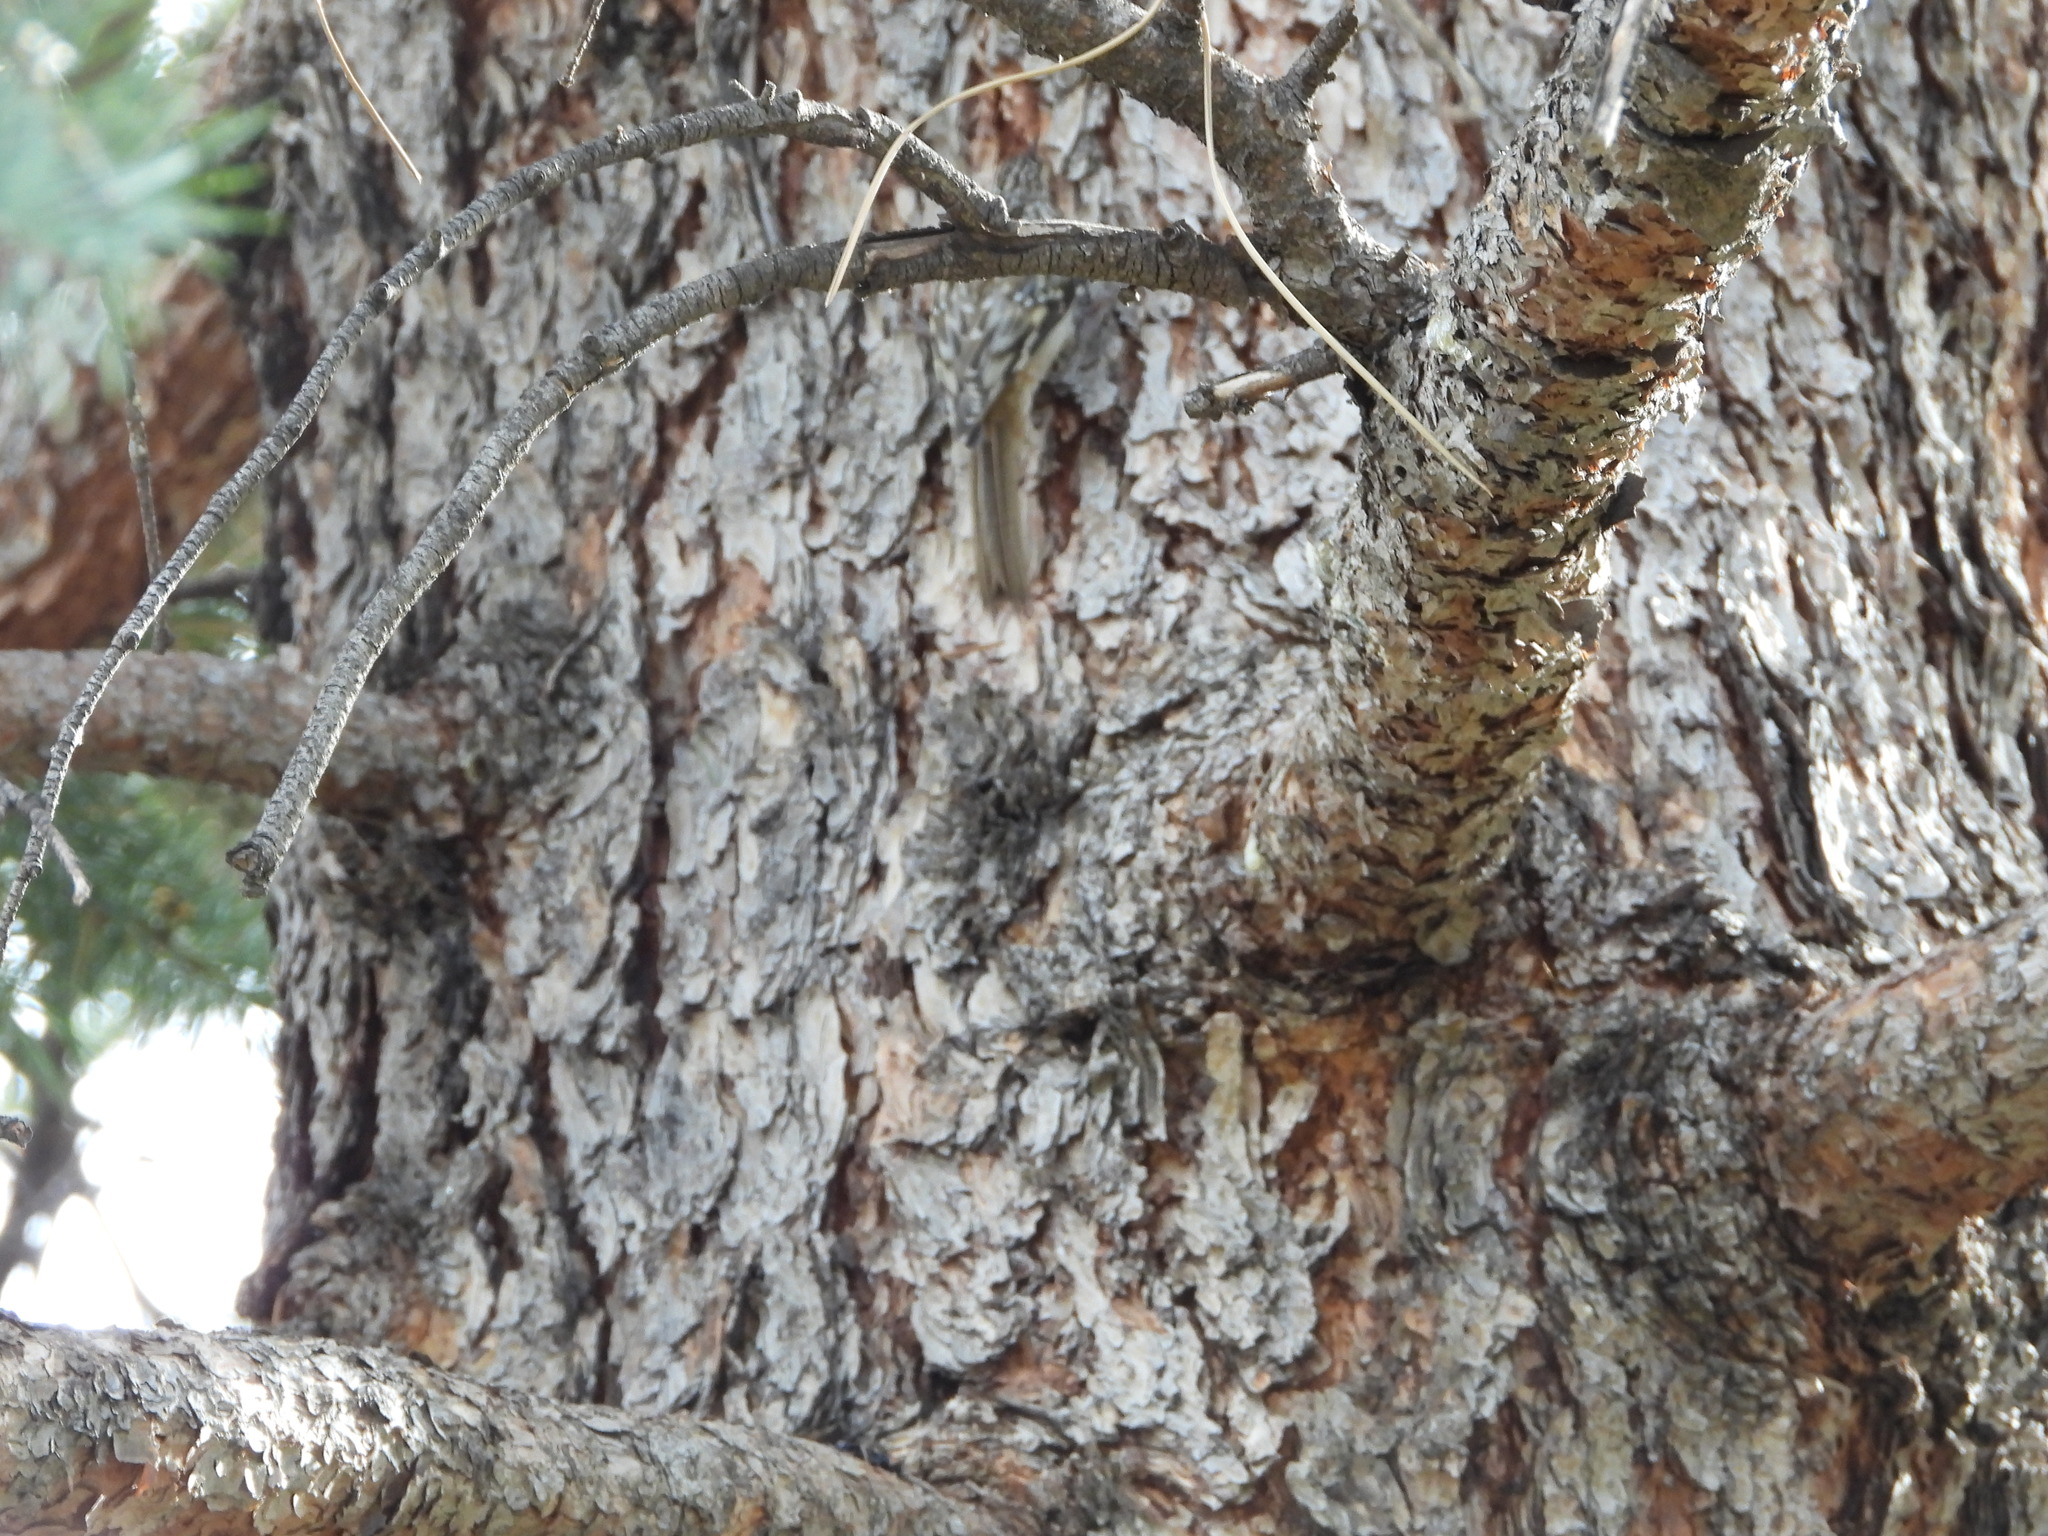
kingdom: Animalia
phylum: Chordata
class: Aves
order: Passeriformes
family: Certhiidae
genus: Certhia
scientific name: Certhia americana
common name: Brown creeper
